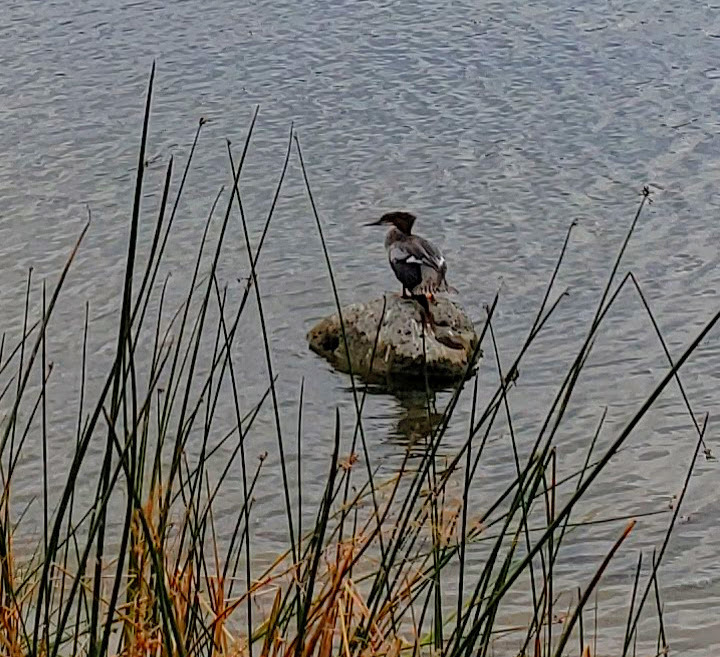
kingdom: Animalia
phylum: Chordata
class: Aves
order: Anseriformes
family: Anatidae
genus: Mergus
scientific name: Mergus merganser
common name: Common merganser
